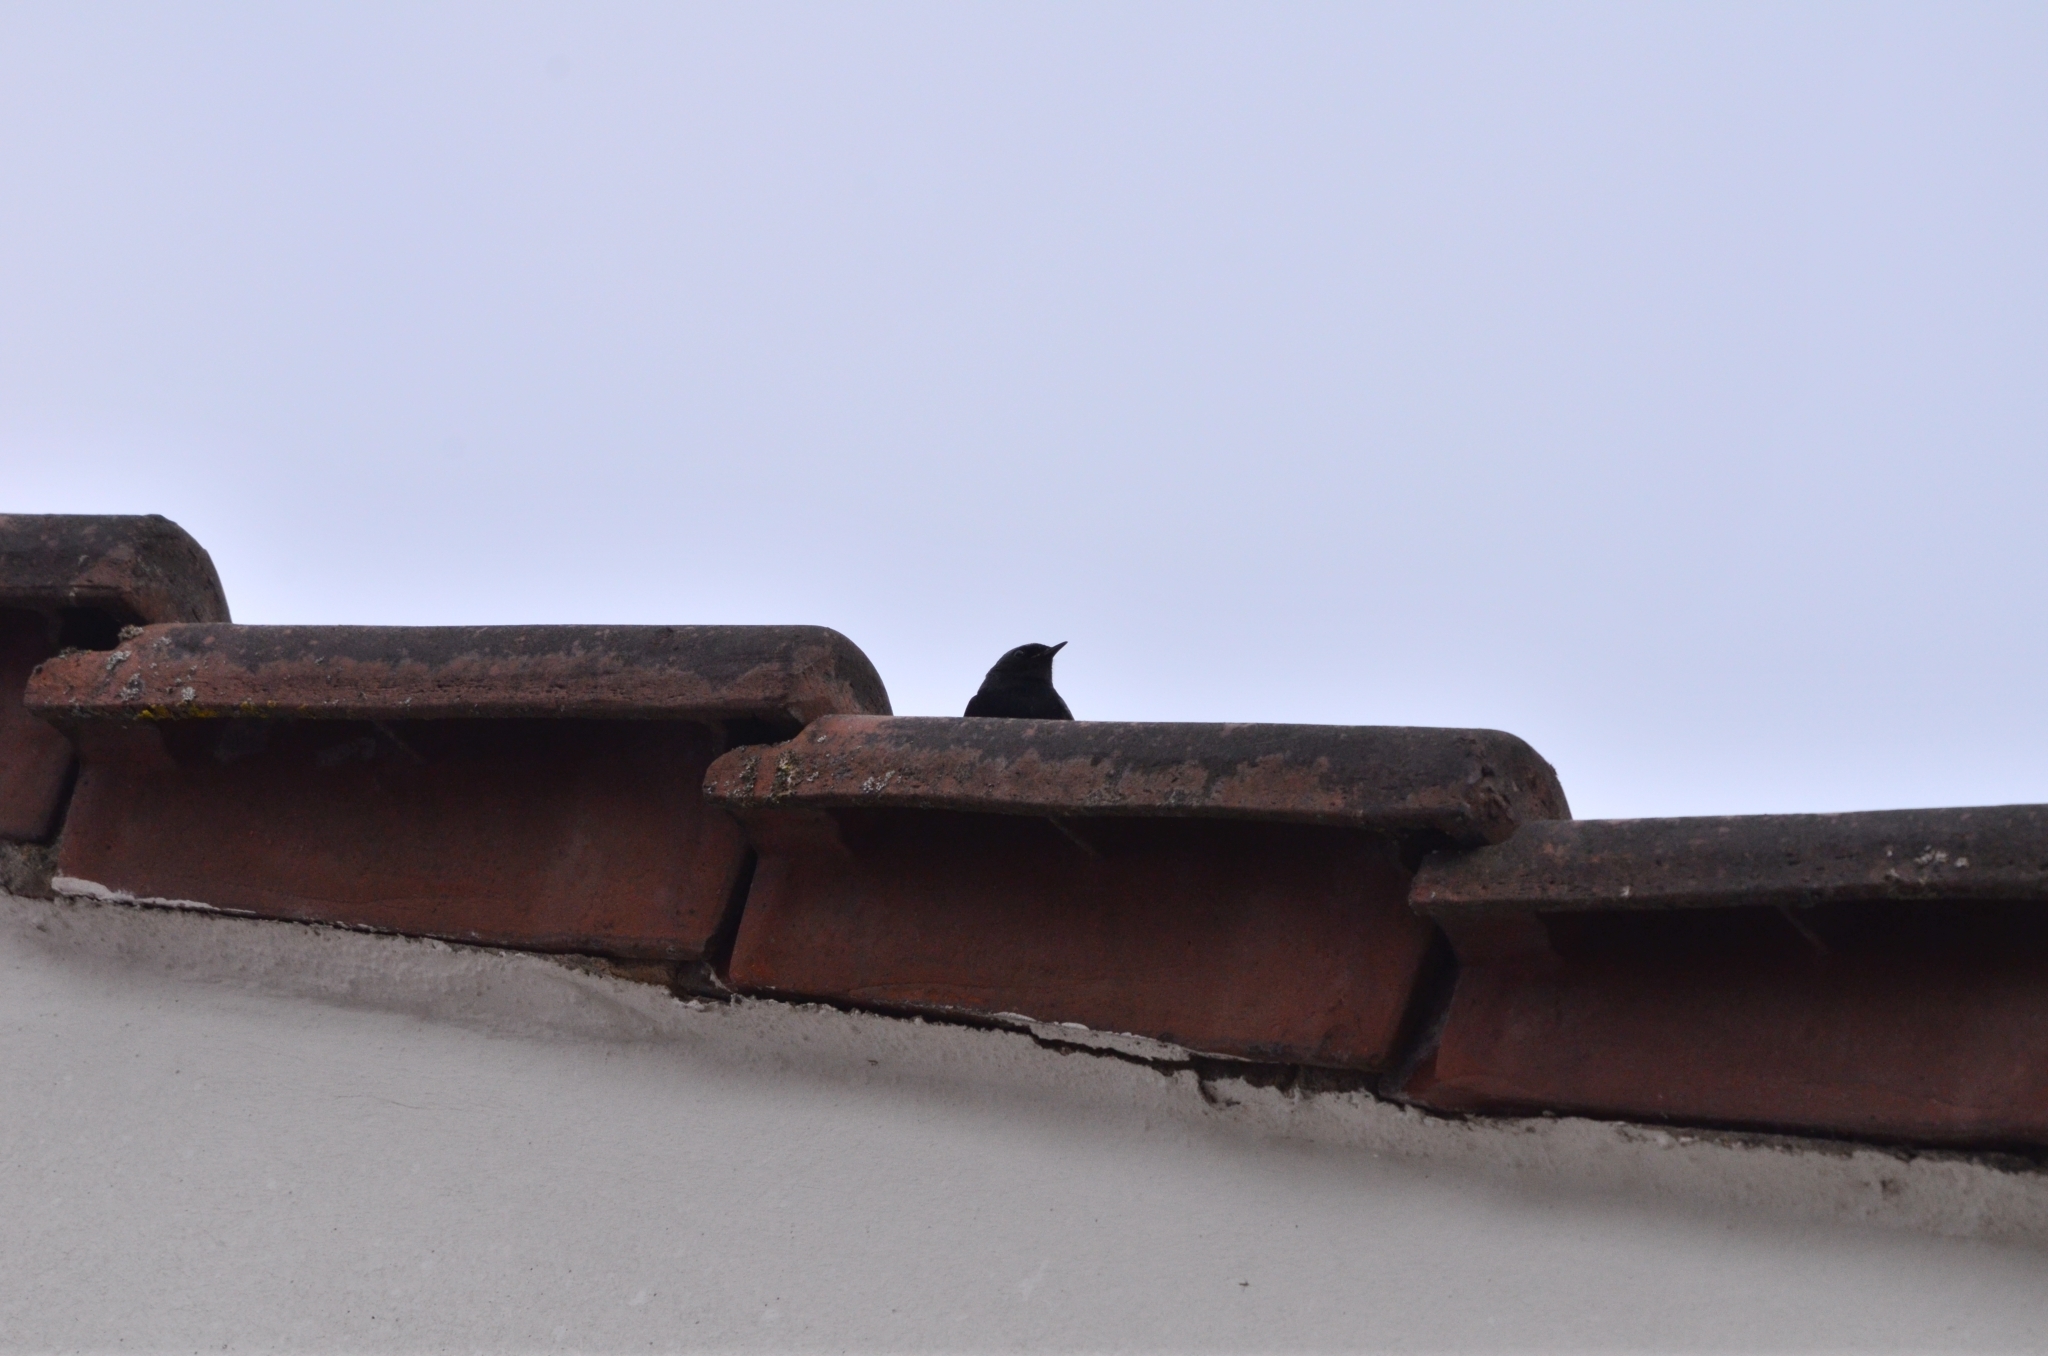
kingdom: Animalia
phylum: Chordata
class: Aves
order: Passeriformes
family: Muscicapidae
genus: Phoenicurus
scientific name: Phoenicurus ochruros
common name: Black redstart
